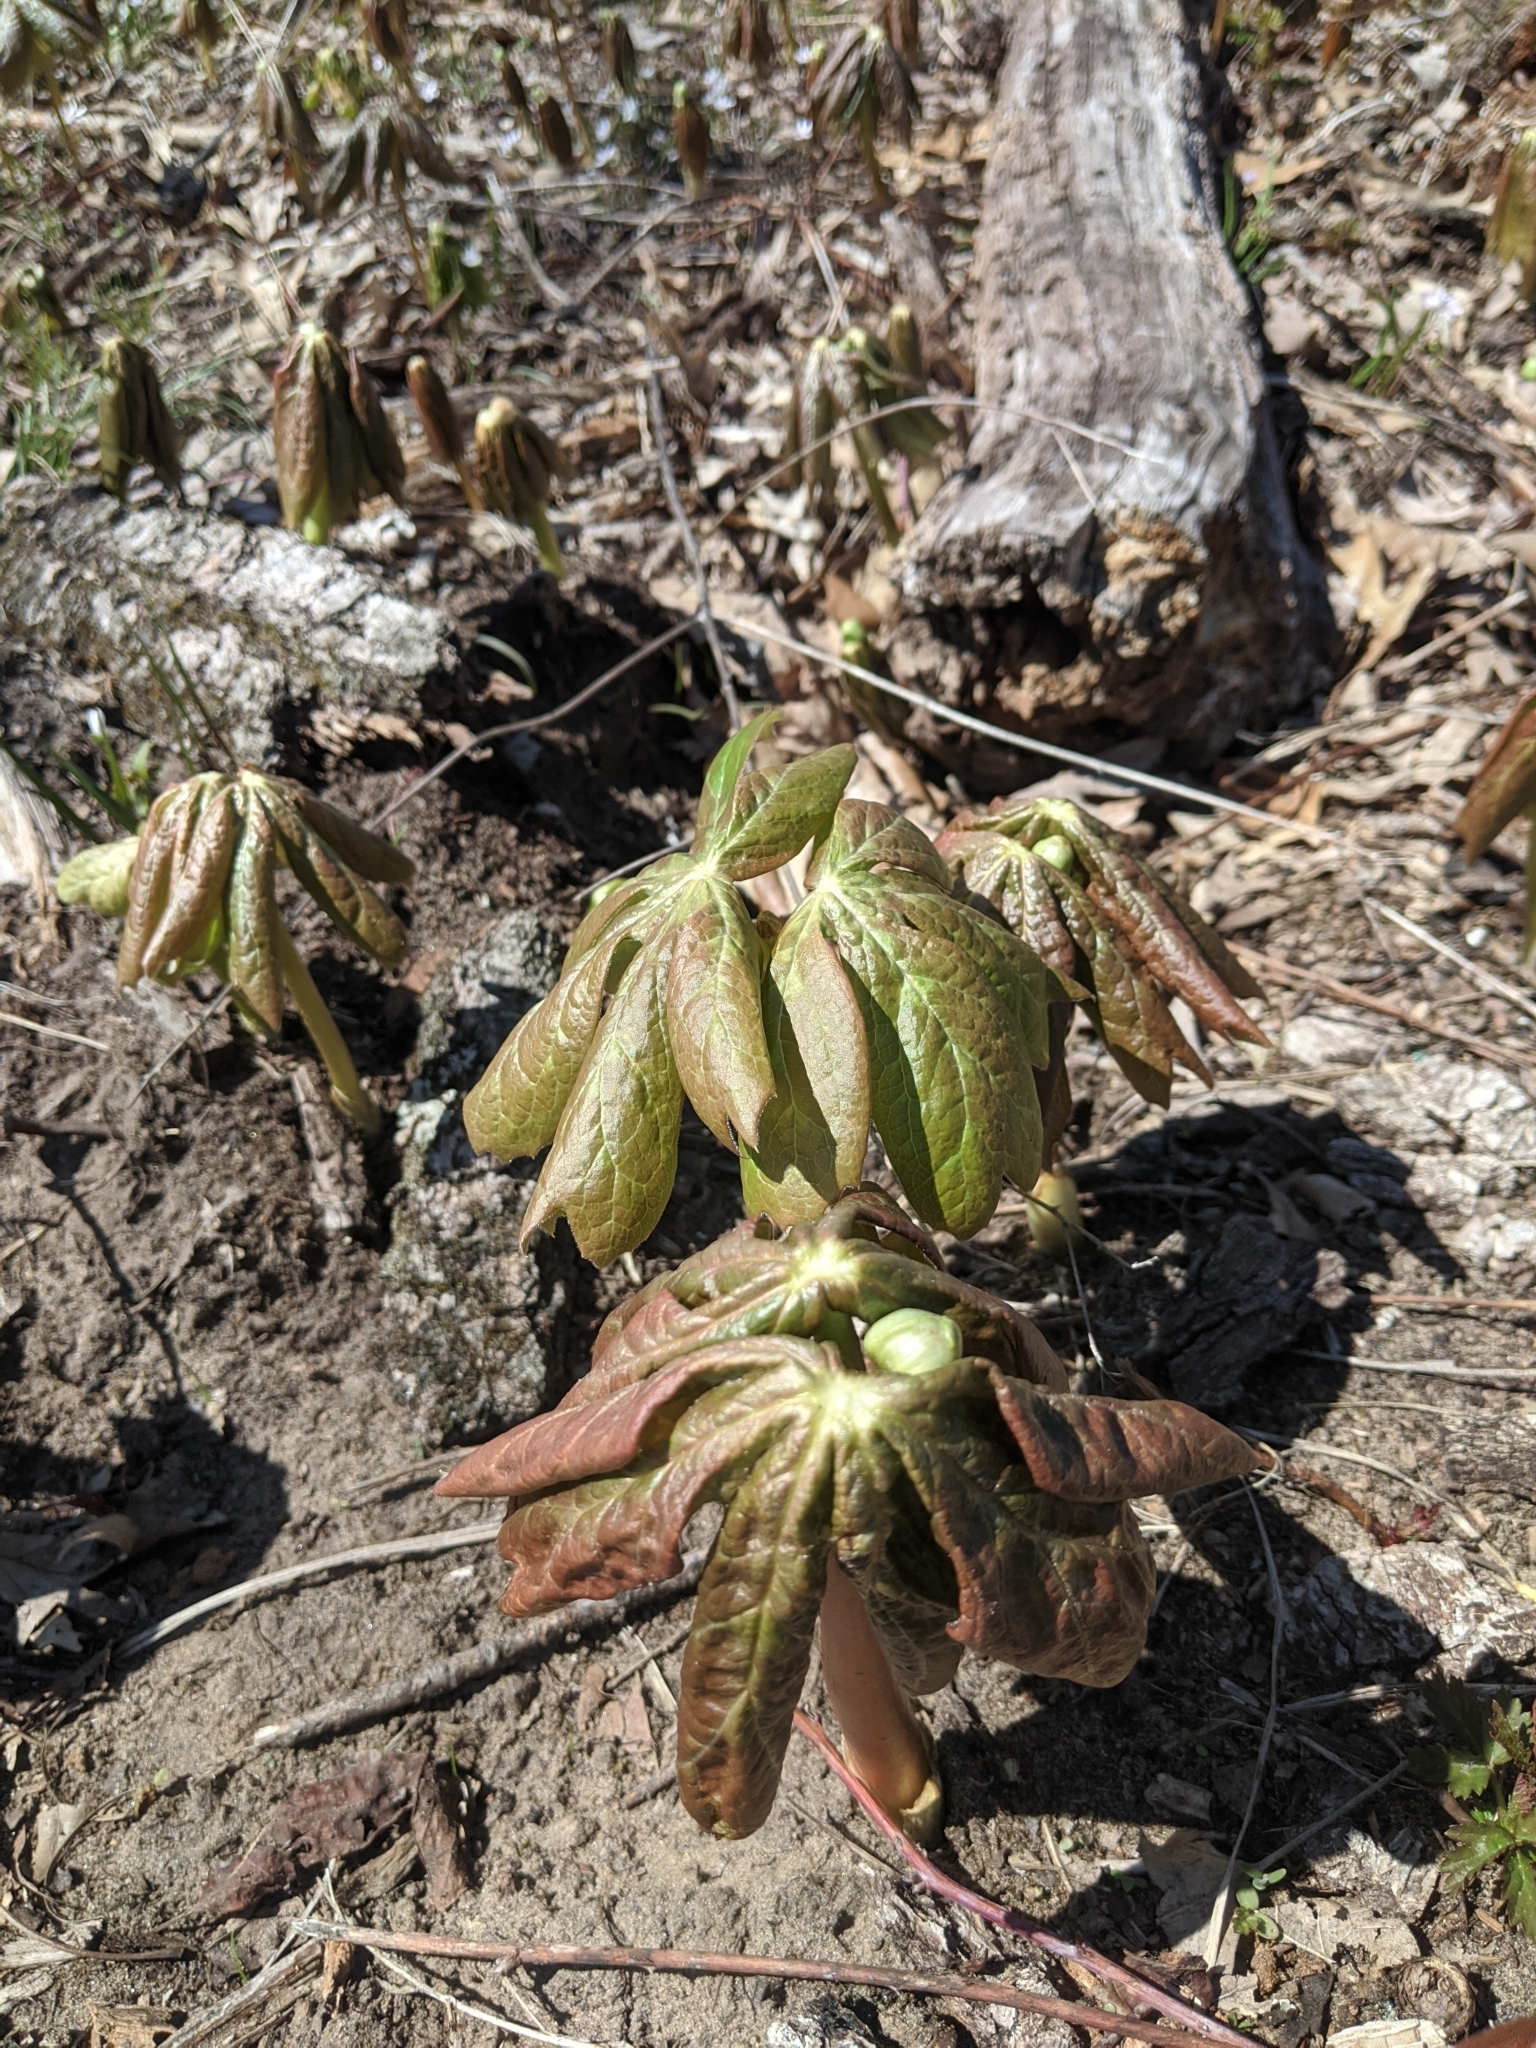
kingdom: Plantae
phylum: Tracheophyta
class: Magnoliopsida
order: Ranunculales
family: Berberidaceae
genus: Podophyllum
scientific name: Podophyllum peltatum
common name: Wild mandrake
